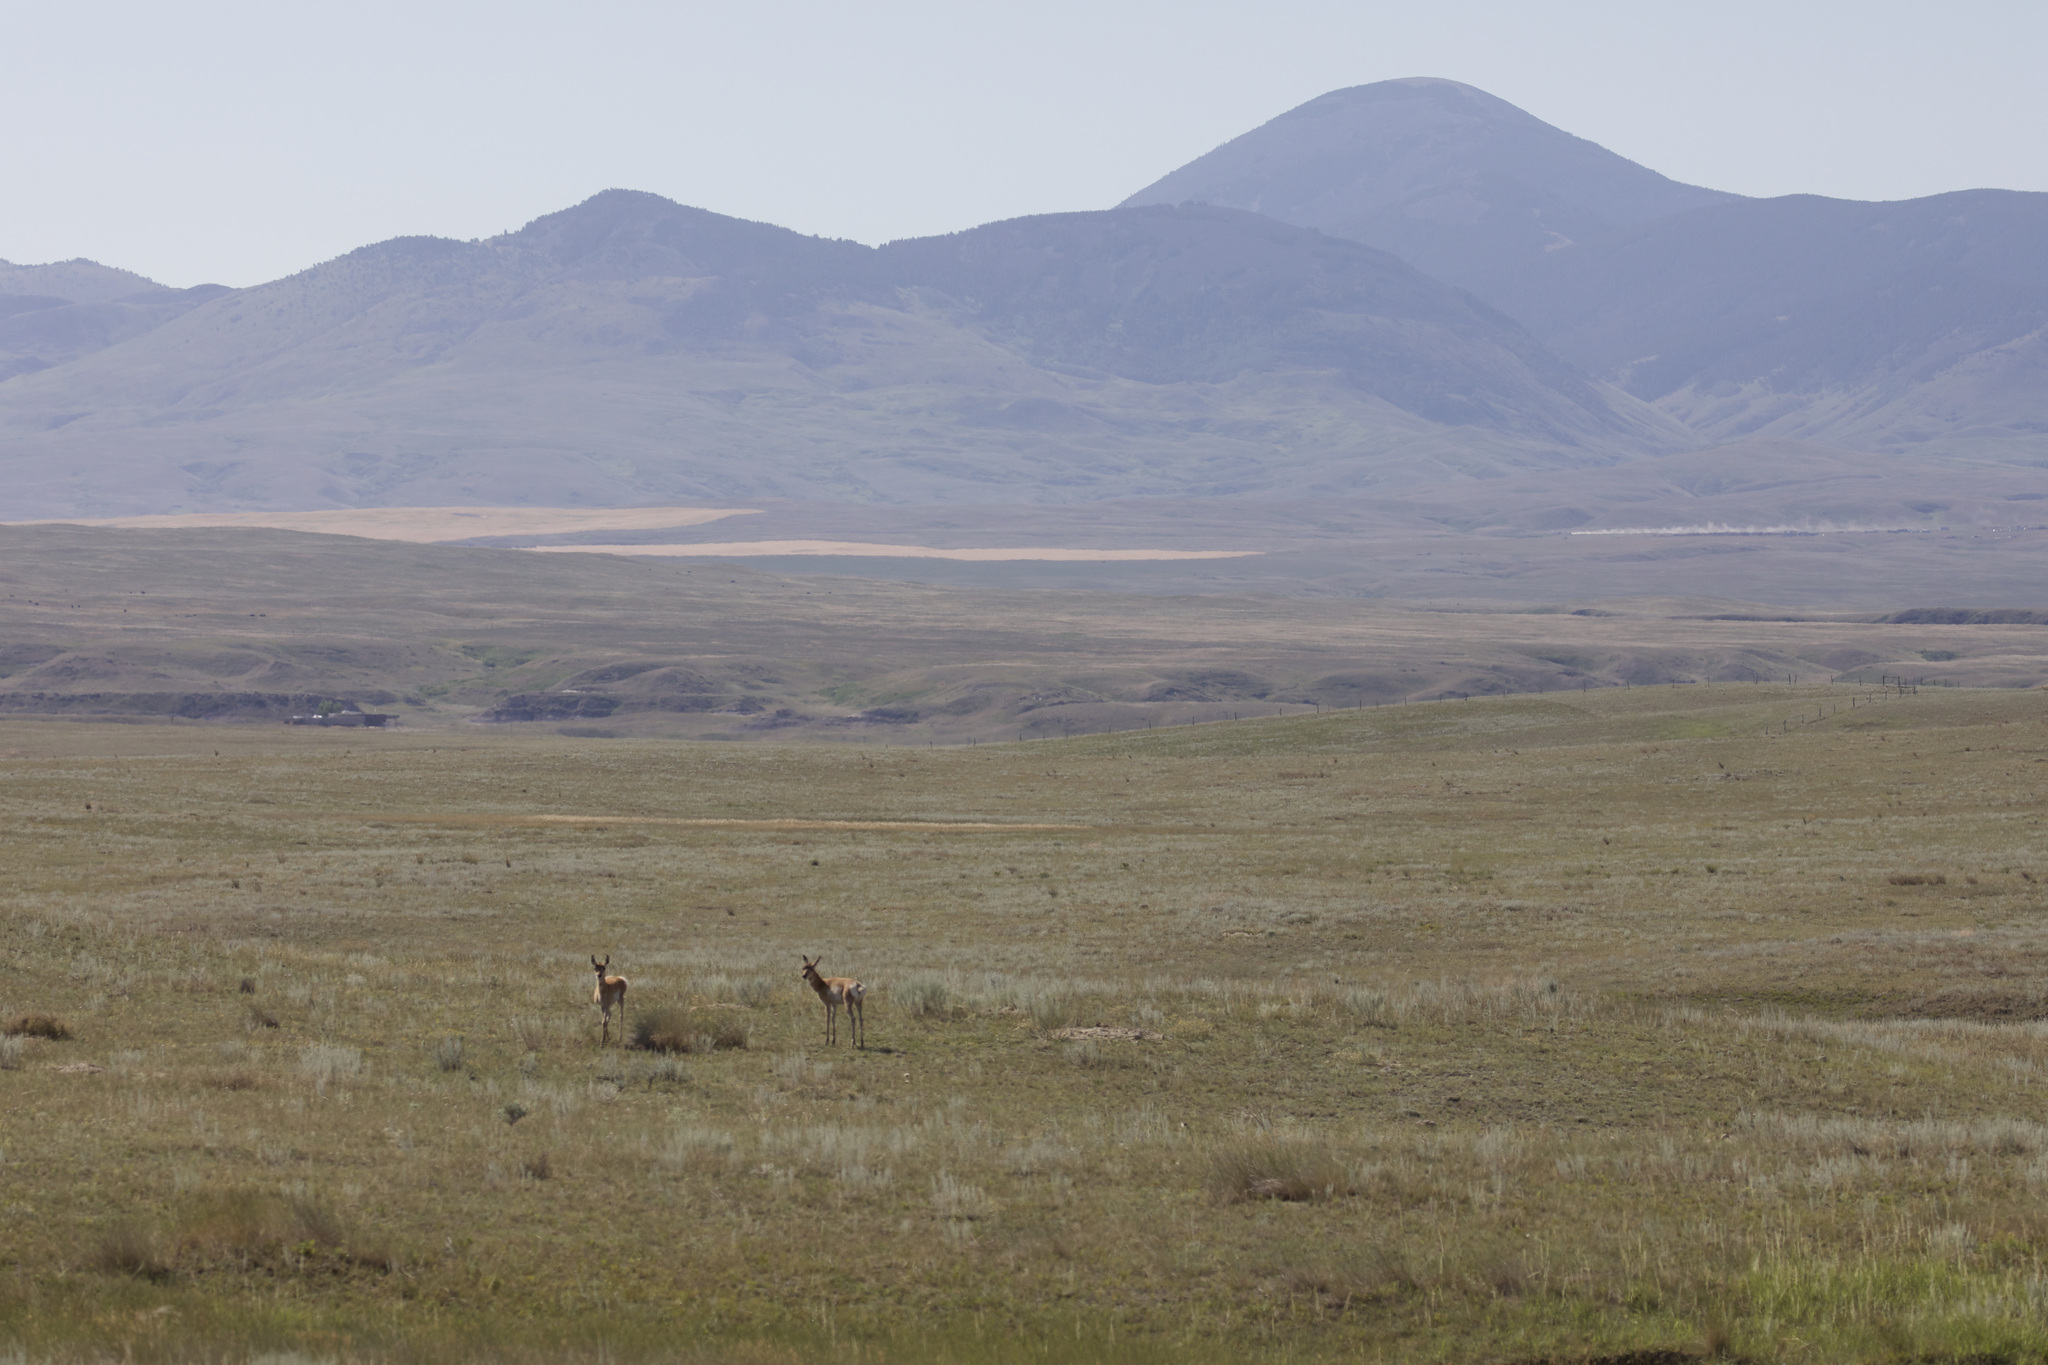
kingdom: Animalia
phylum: Chordata
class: Mammalia
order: Artiodactyla
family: Antilocapridae
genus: Antilocapra
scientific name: Antilocapra americana
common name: Pronghorn
